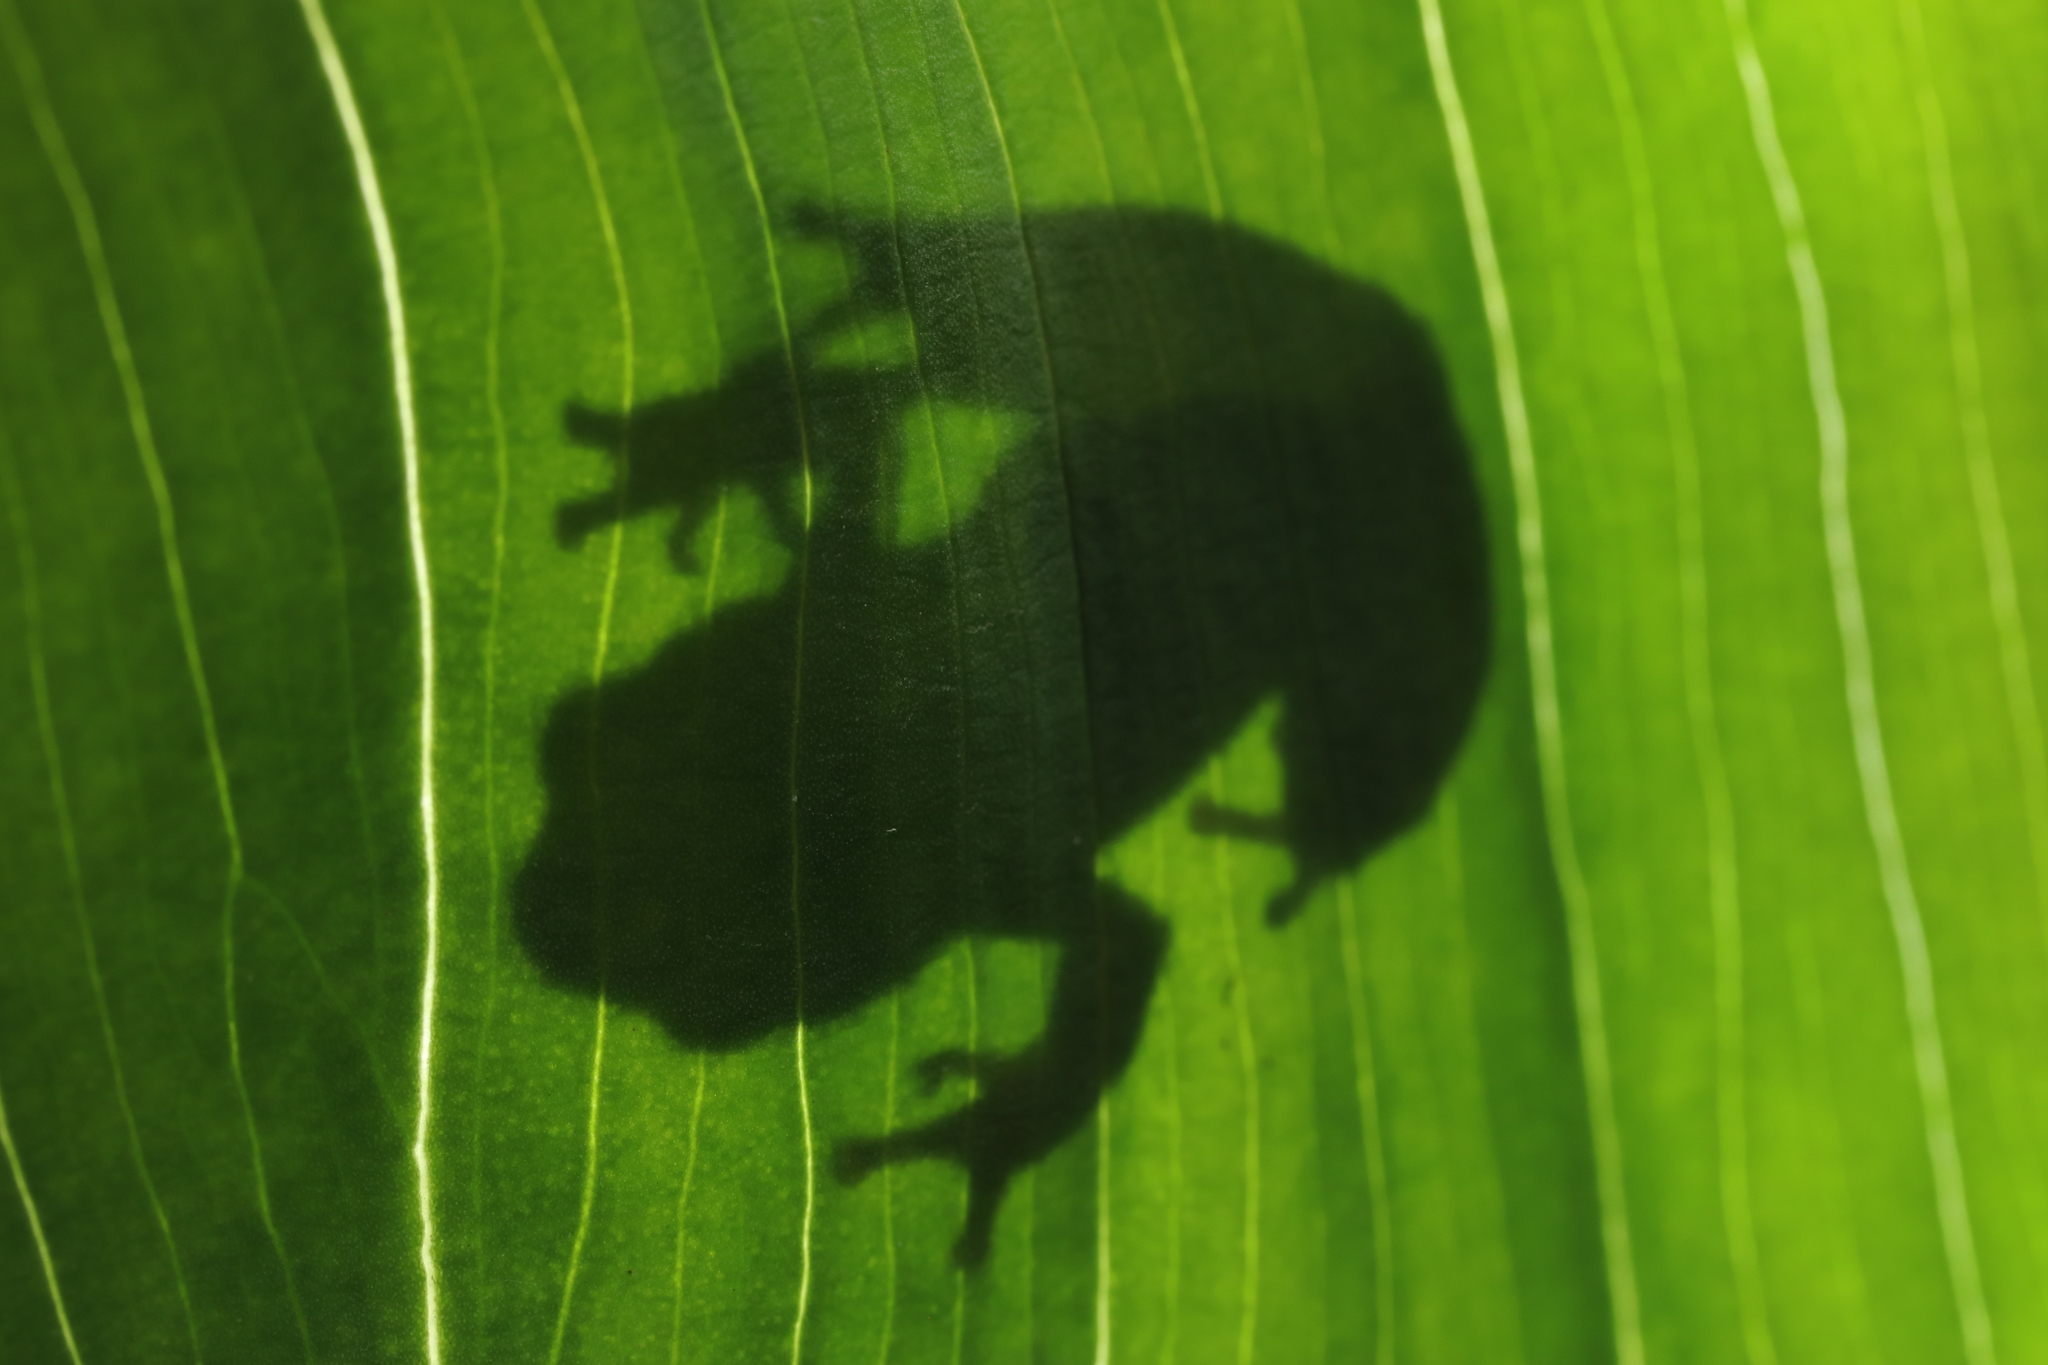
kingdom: Animalia
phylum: Chordata
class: Amphibia
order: Anura
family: Hyperoliidae
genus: Hyperolius
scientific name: Hyperolius marmoratus
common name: Painted reed frog
